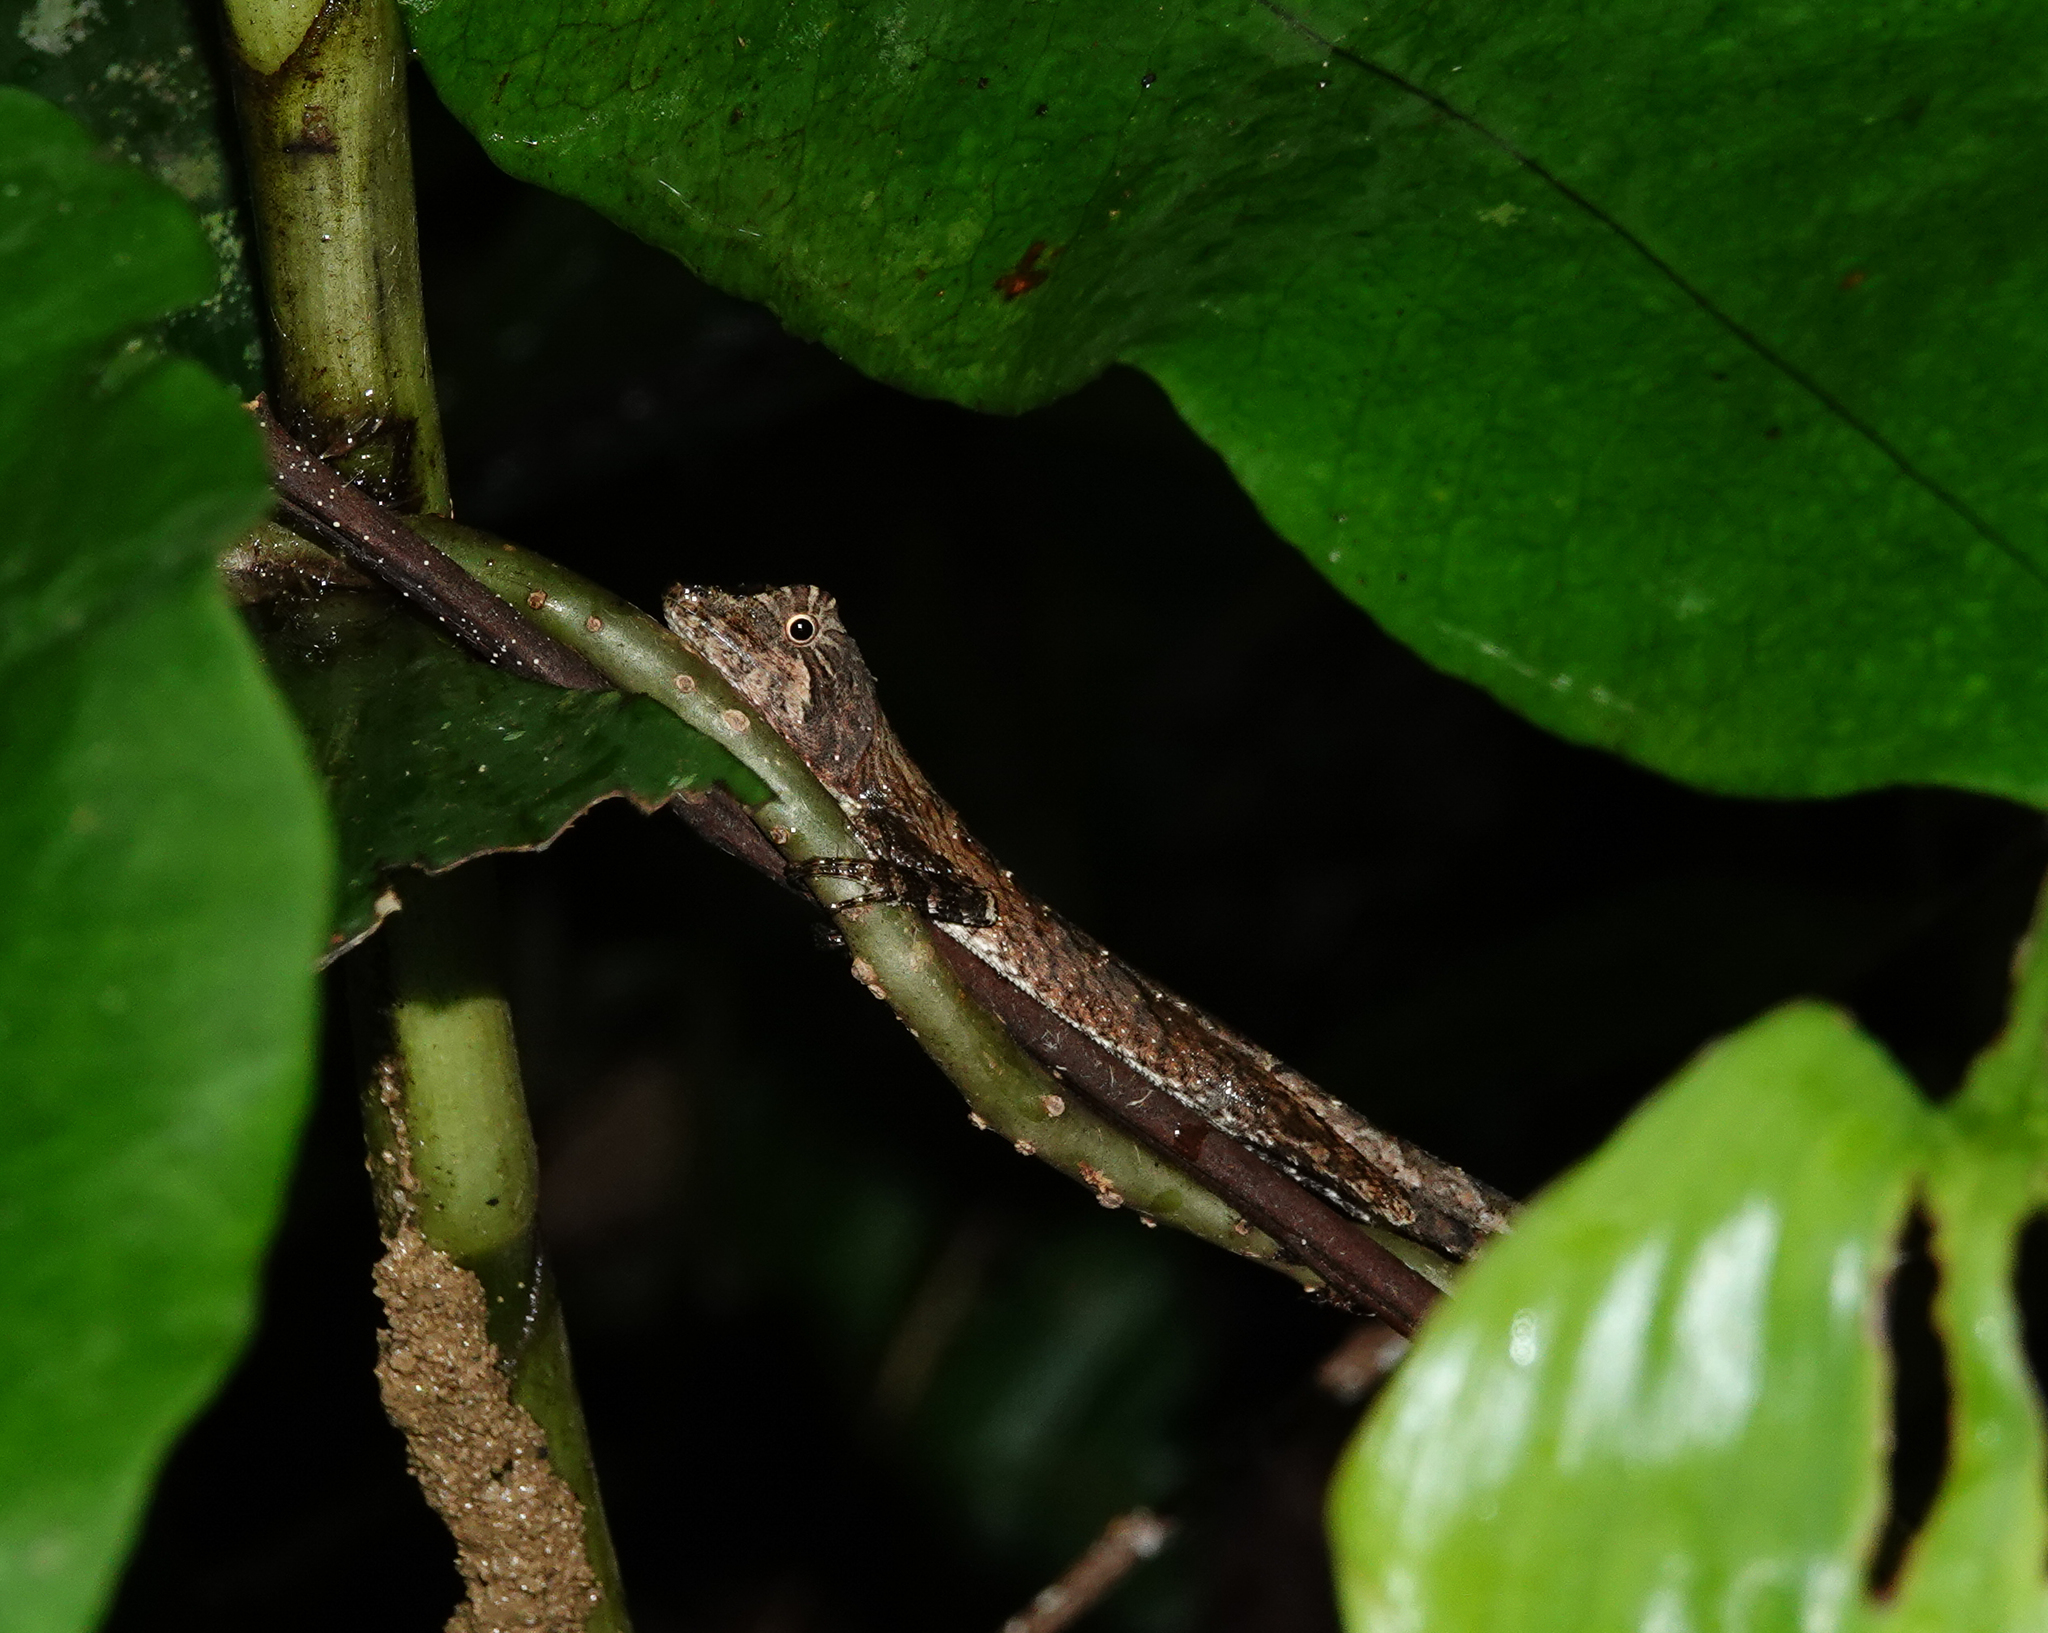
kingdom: Animalia
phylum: Chordata
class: Squamata
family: Agamidae
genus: Ptyctolaemus
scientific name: Ptyctolaemus gularis
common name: Green fan-throated lizard
